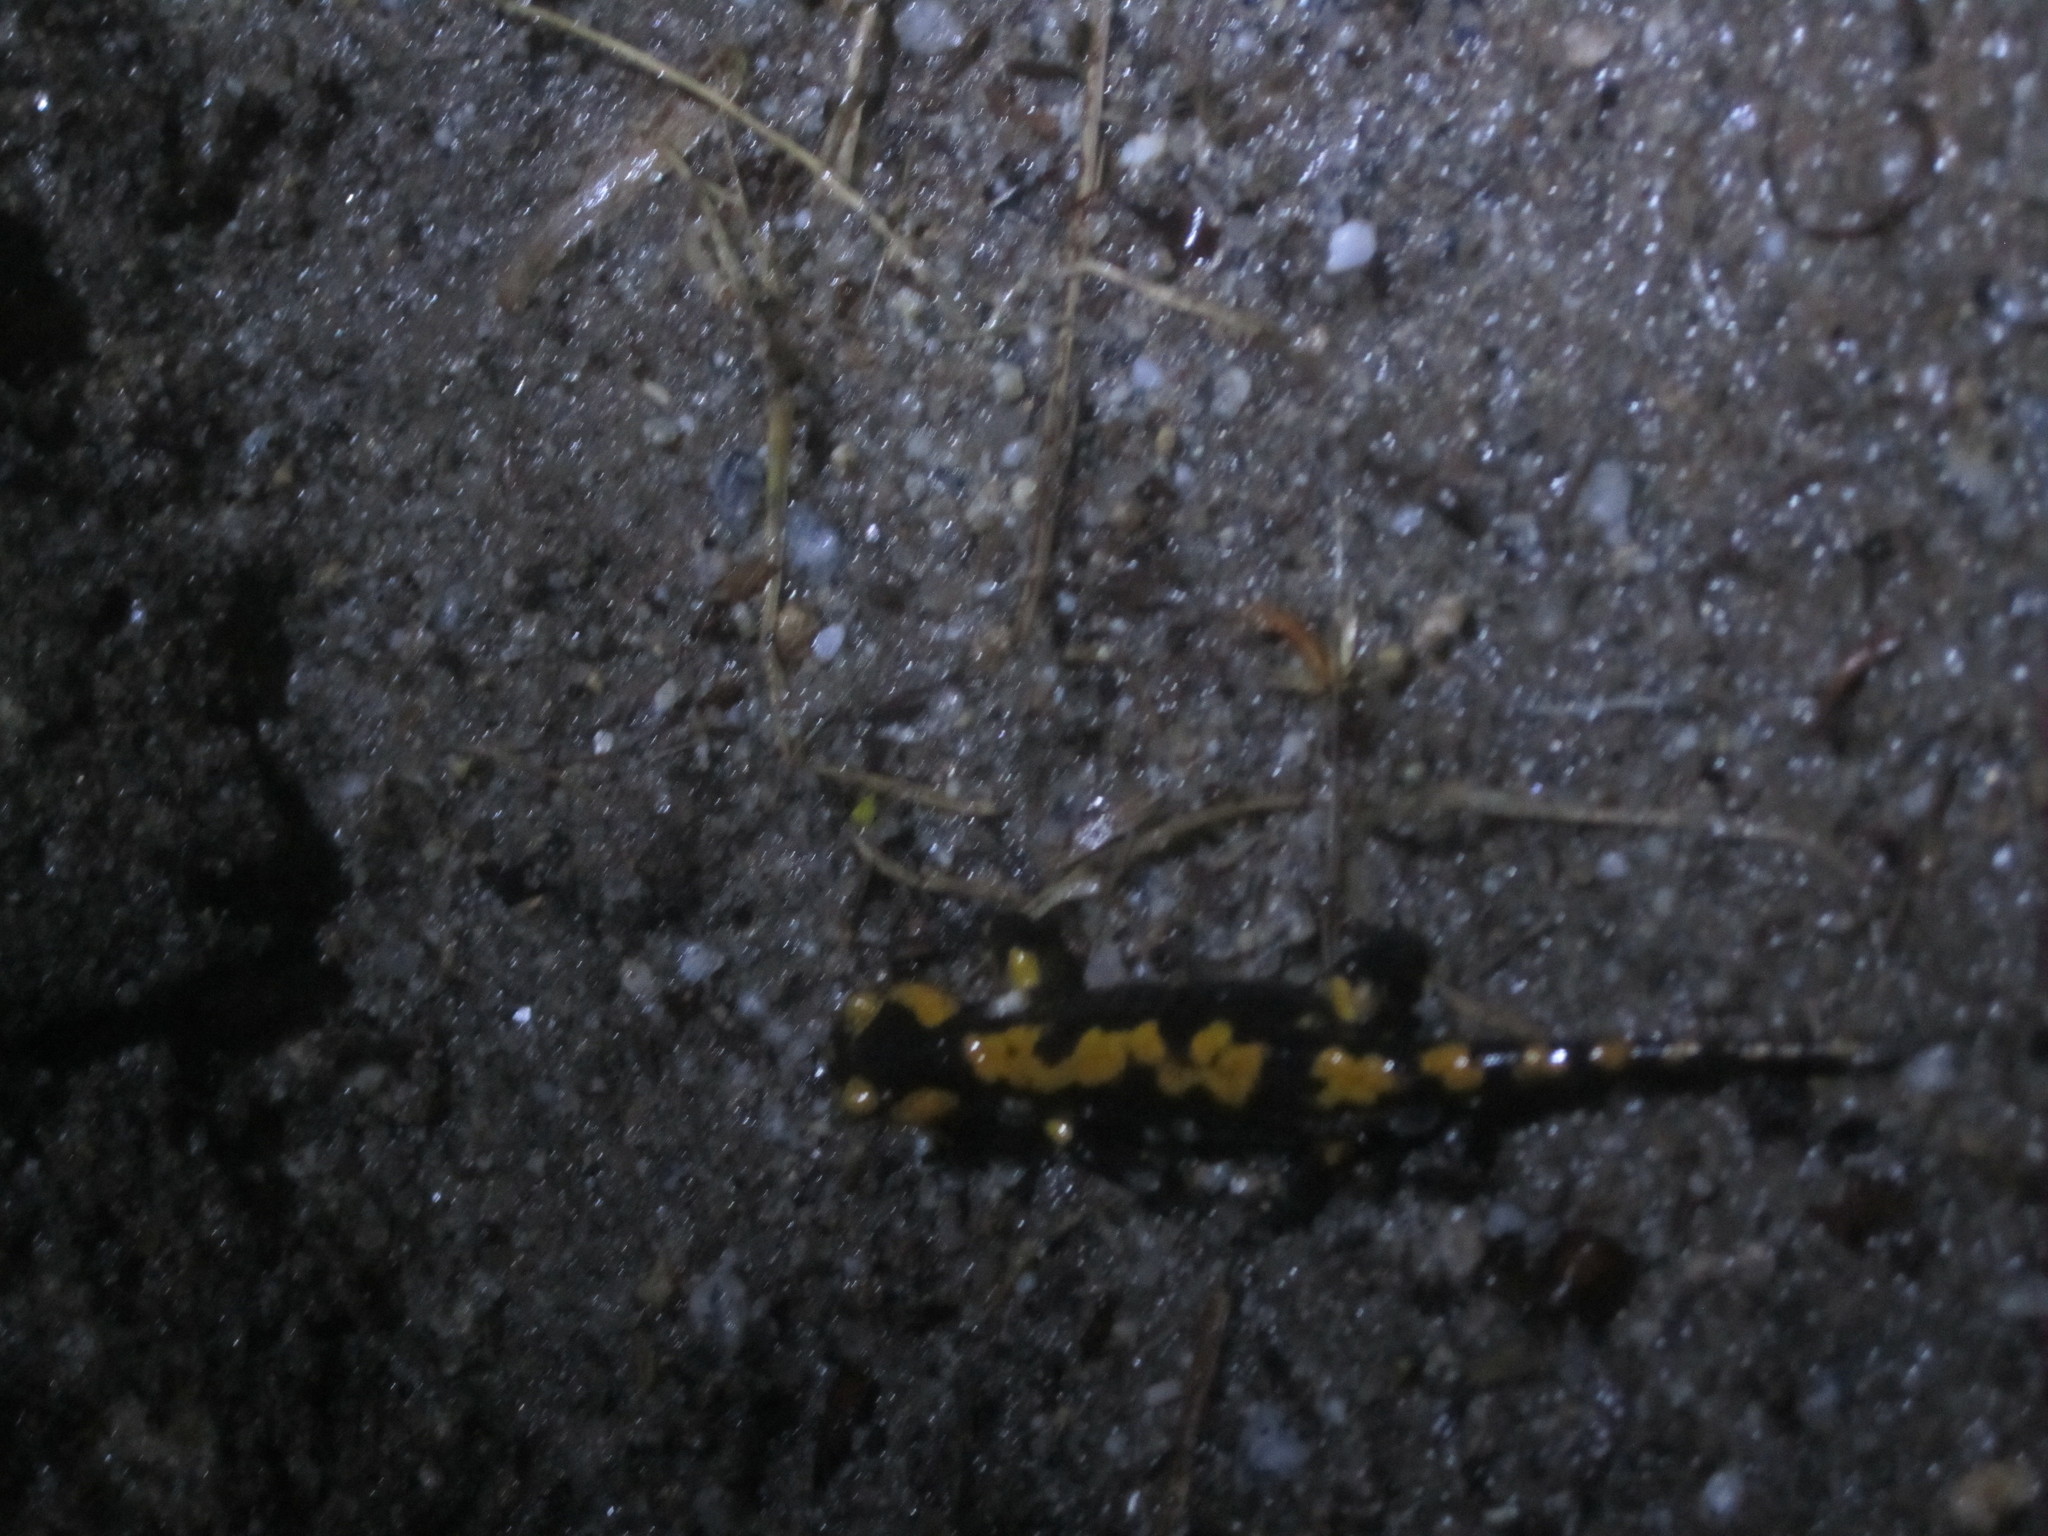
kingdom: Animalia
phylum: Chordata
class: Amphibia
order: Caudata
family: Salamandridae
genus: Salamandra
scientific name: Salamandra salamandra
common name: Fire salamander
